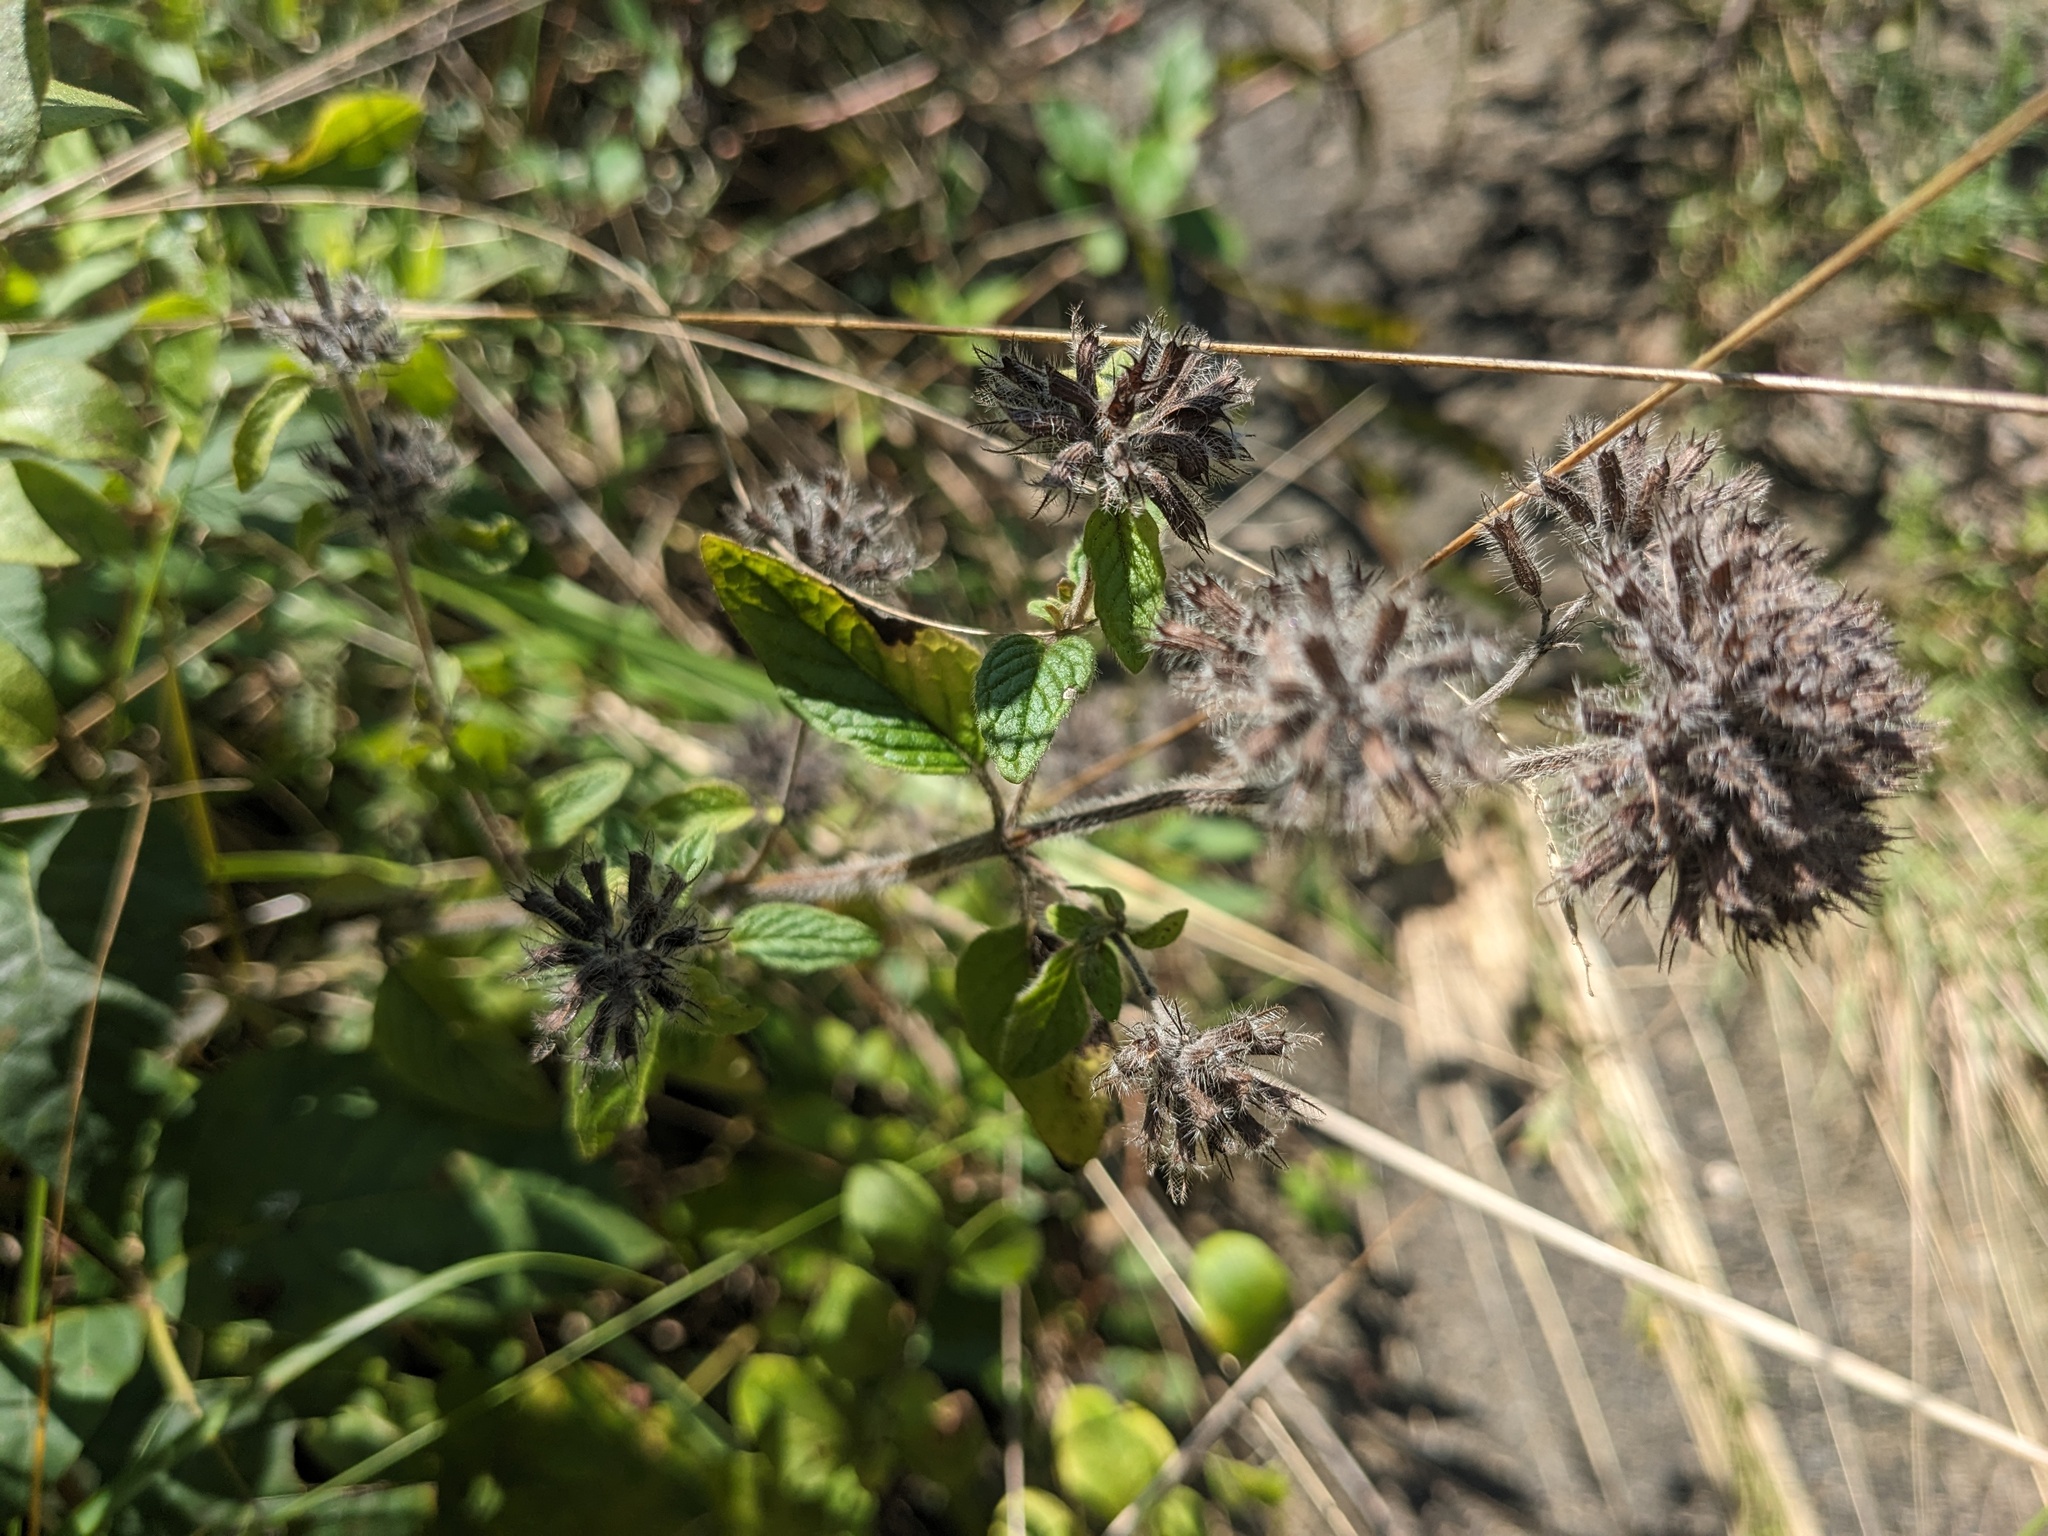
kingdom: Plantae
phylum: Tracheophyta
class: Magnoliopsida
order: Lamiales
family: Lamiaceae
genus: Clinopodium
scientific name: Clinopodium vulgare
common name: Wild basil
